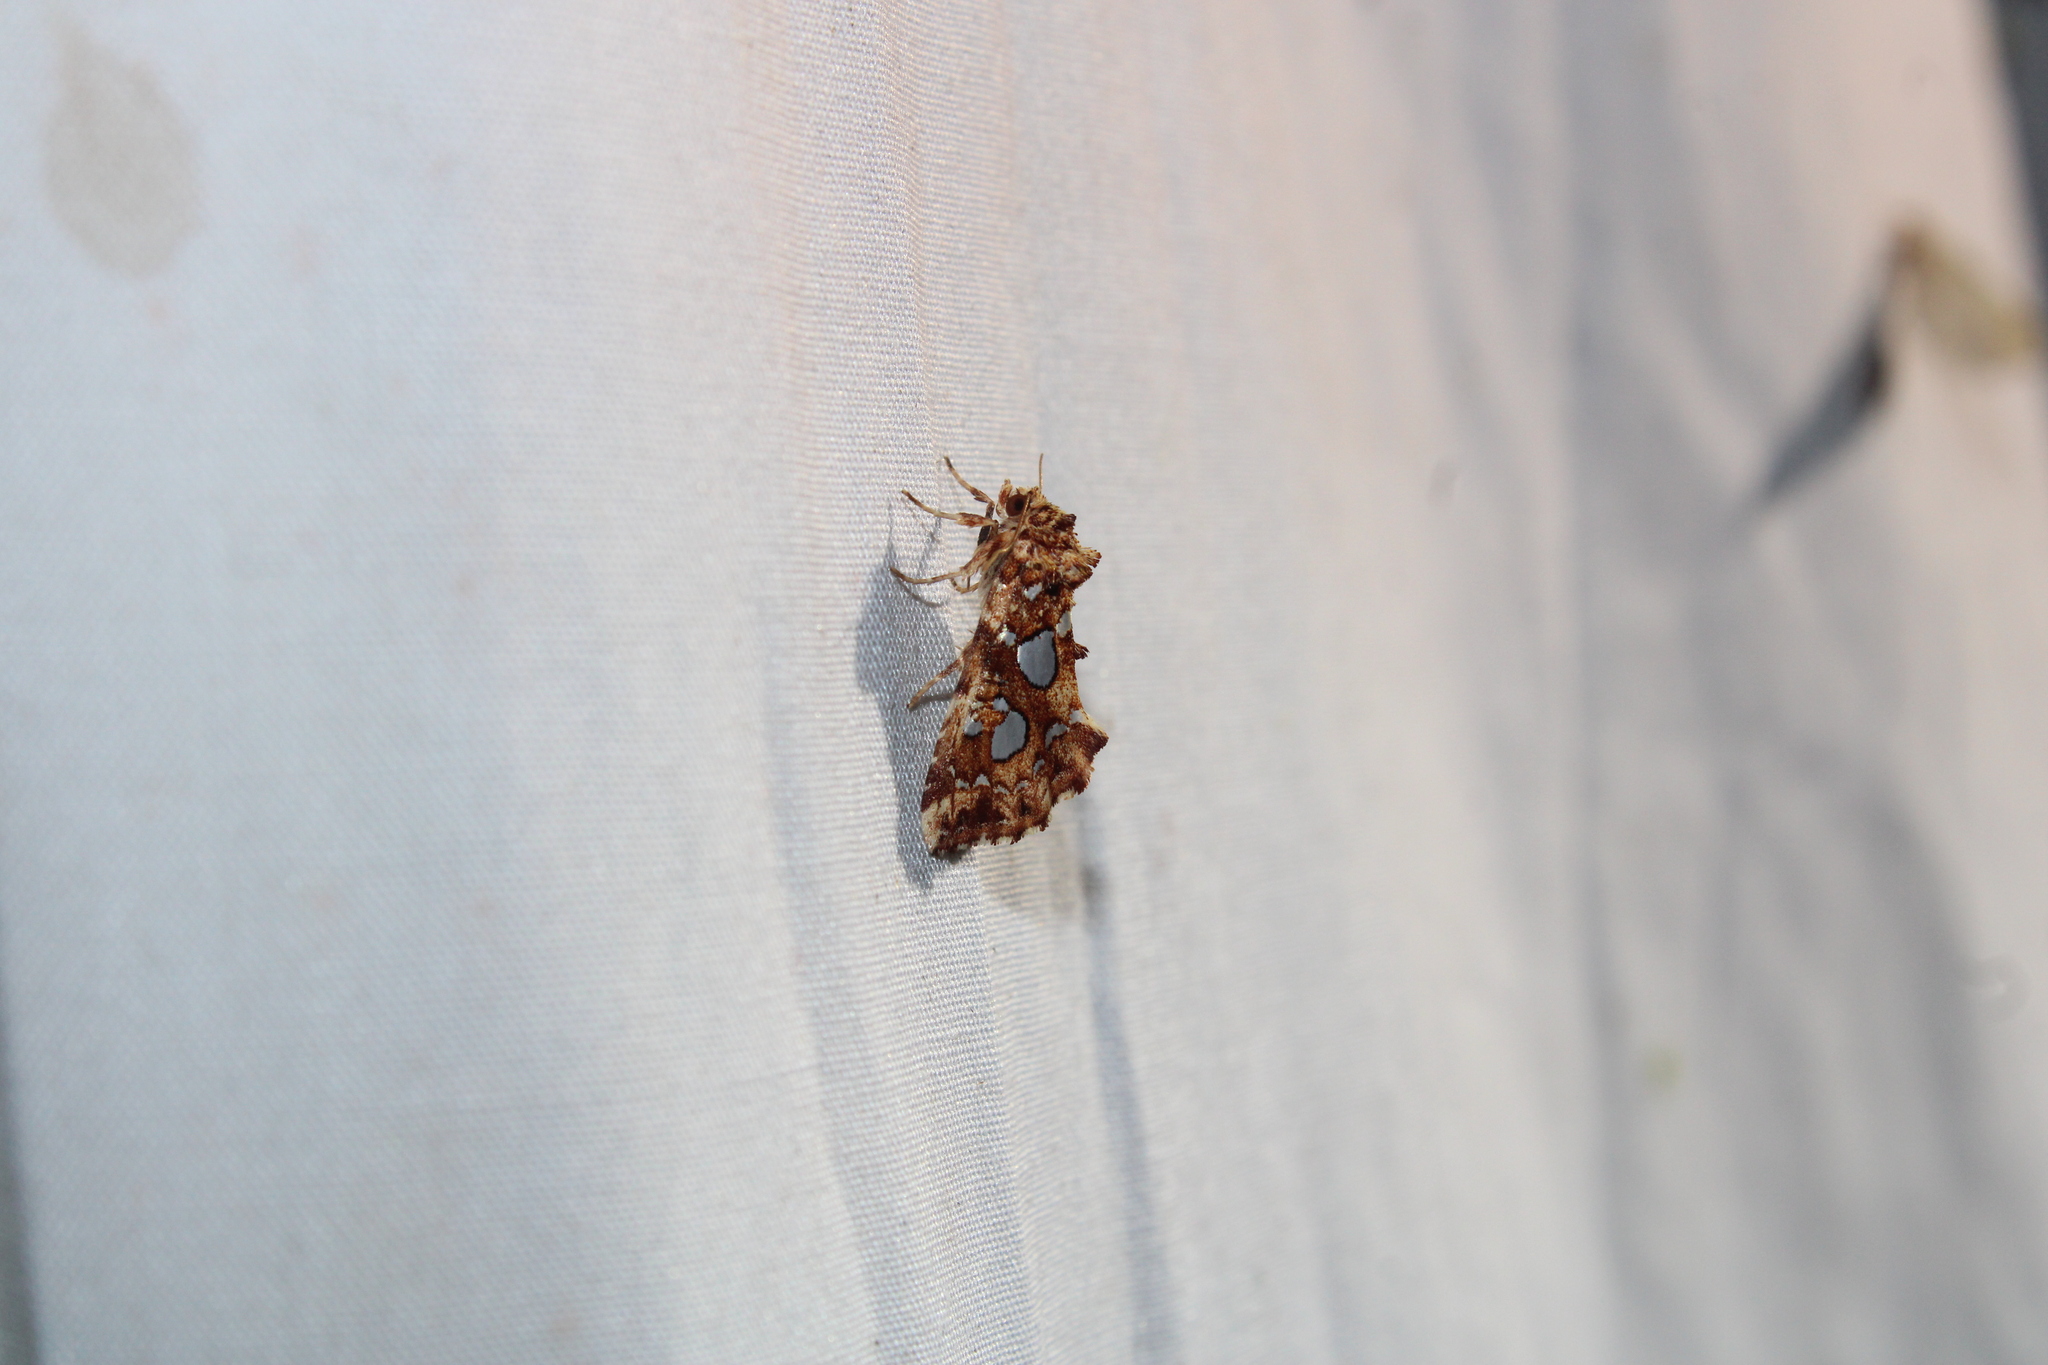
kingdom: Animalia
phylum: Arthropoda
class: Insecta
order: Lepidoptera
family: Noctuidae
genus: Callopistria
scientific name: Callopistria cordata
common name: Silver-spotted fern moth
